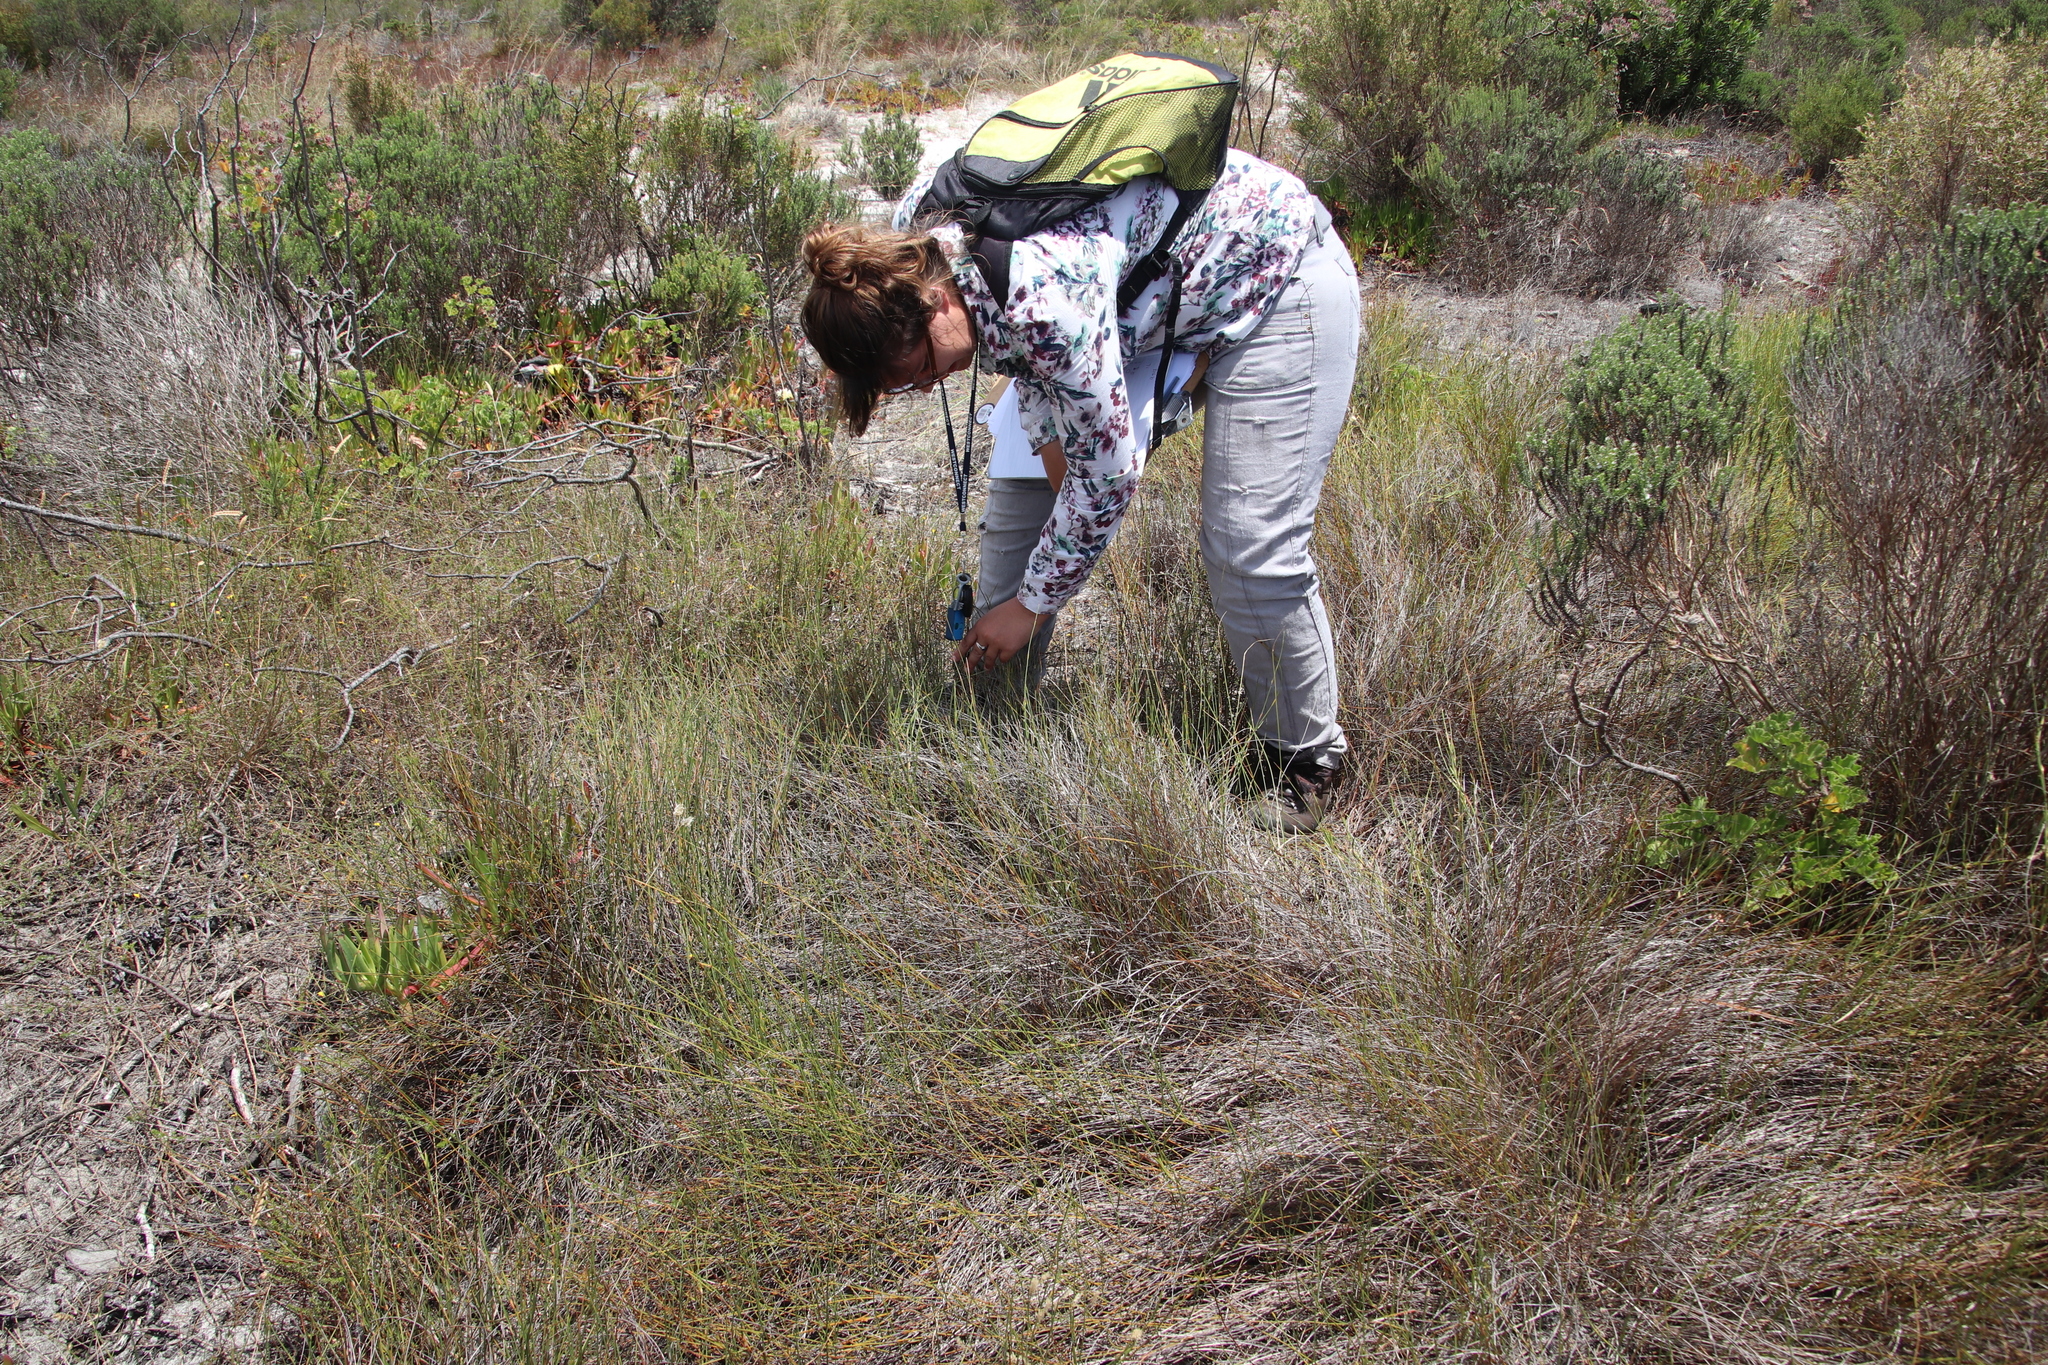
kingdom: Plantae
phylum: Tracheophyta
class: Liliopsida
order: Poales
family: Cyperaceae
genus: Ficinia
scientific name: Ficinia indica
